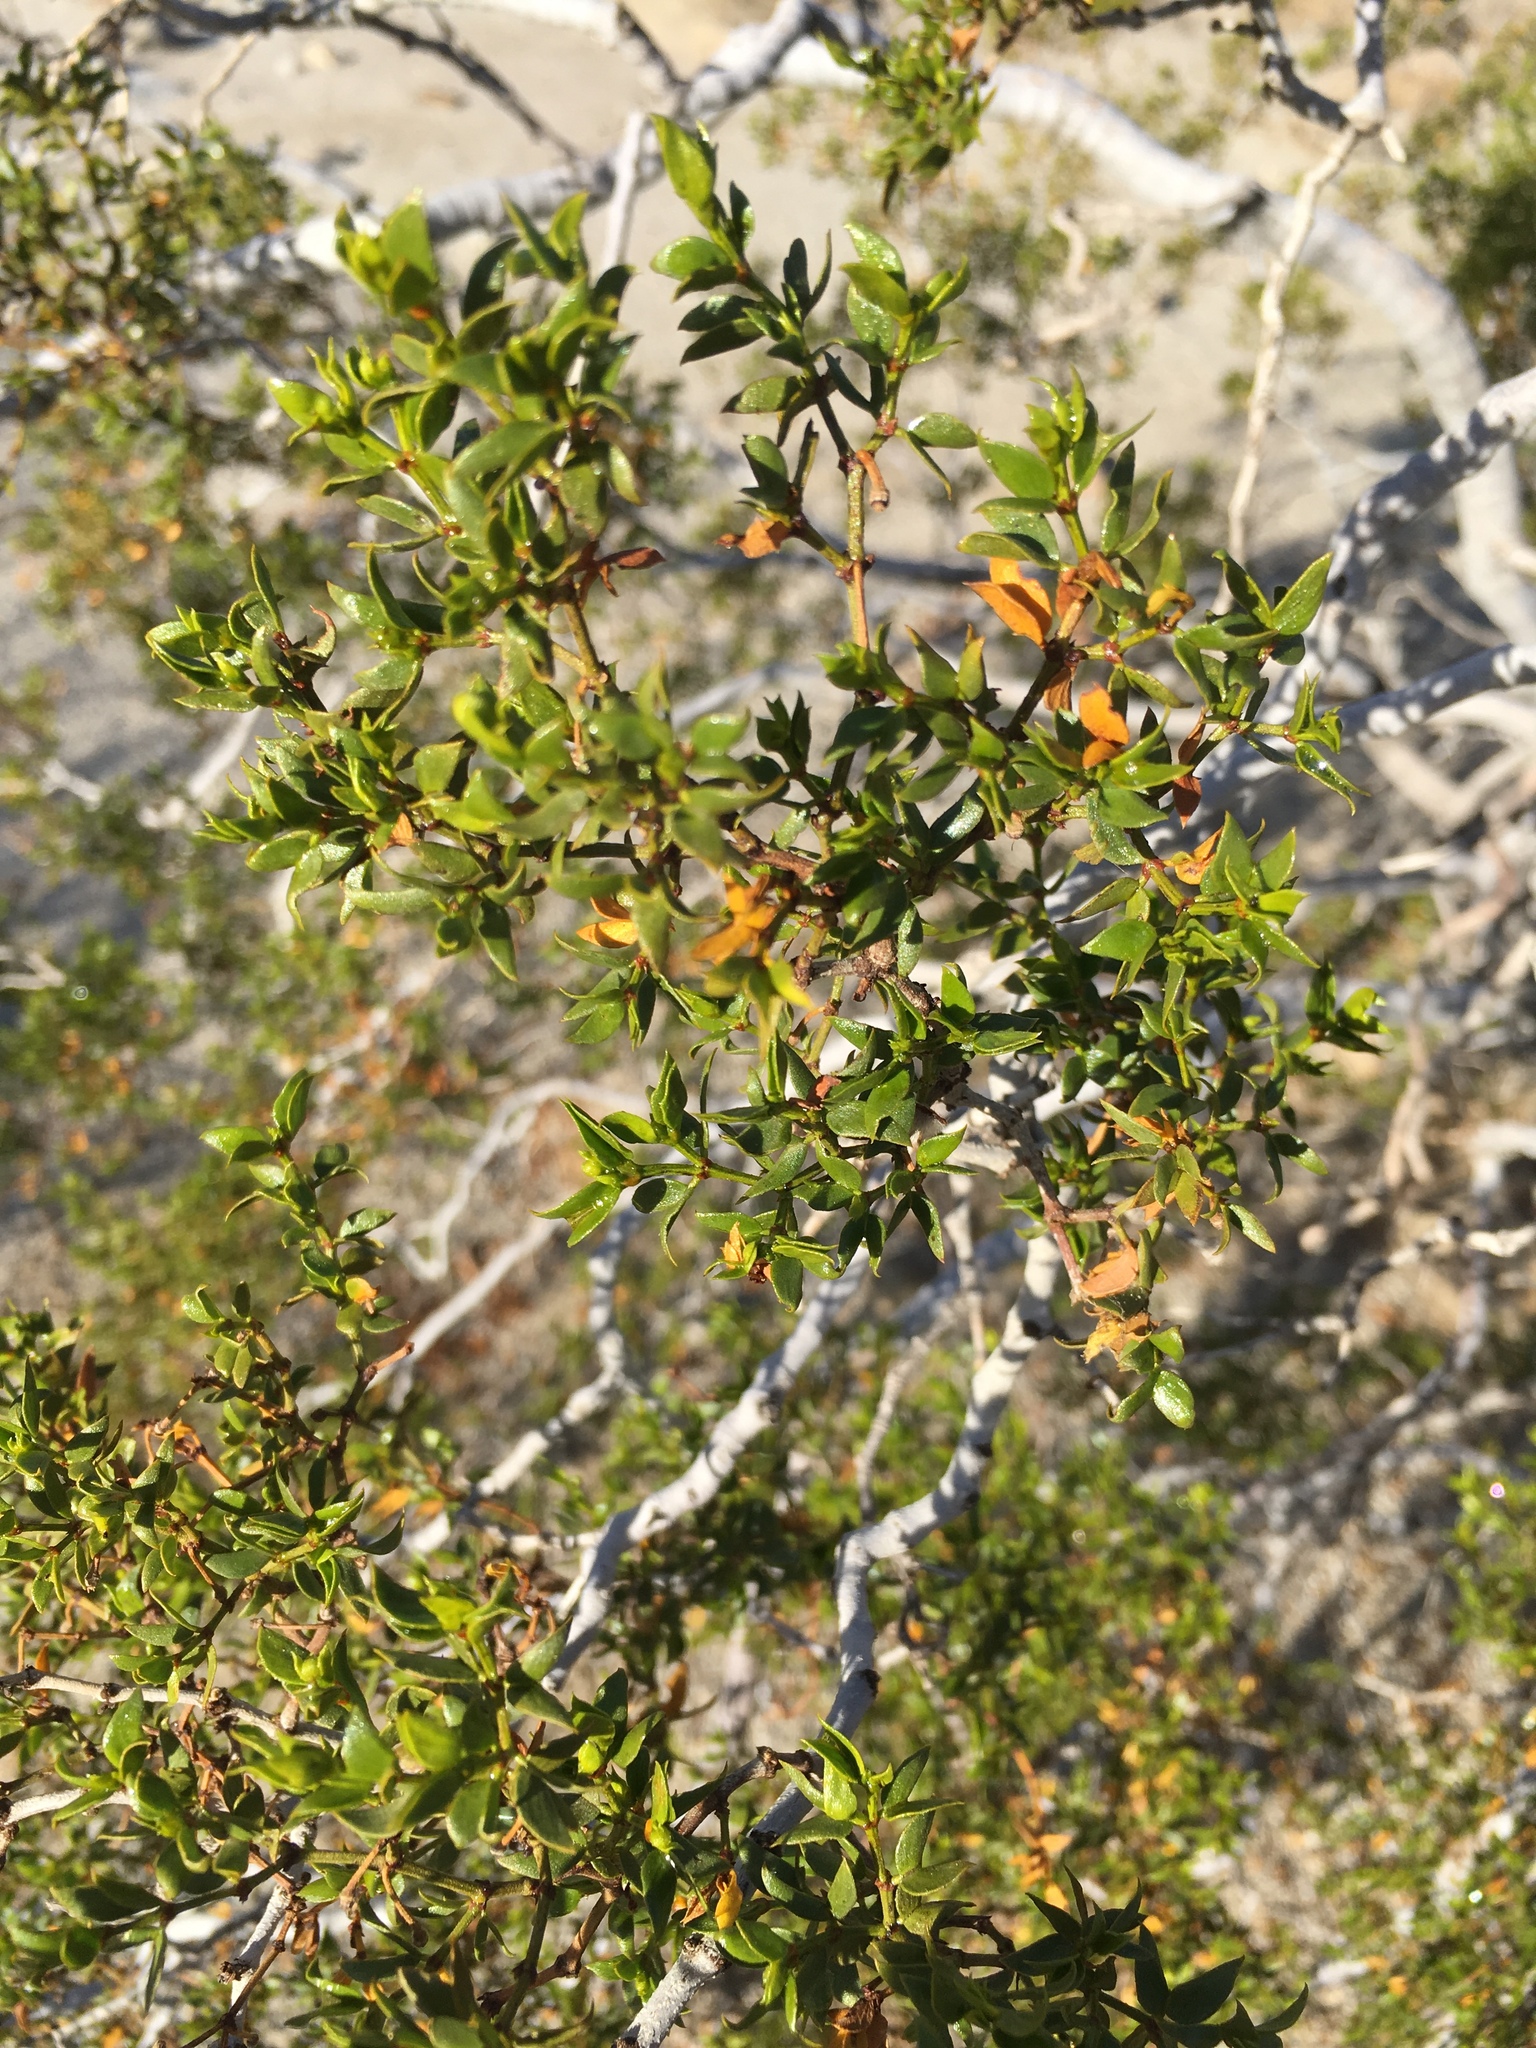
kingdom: Plantae
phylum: Tracheophyta
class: Magnoliopsida
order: Zygophyllales
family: Zygophyllaceae
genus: Larrea
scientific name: Larrea tridentata
